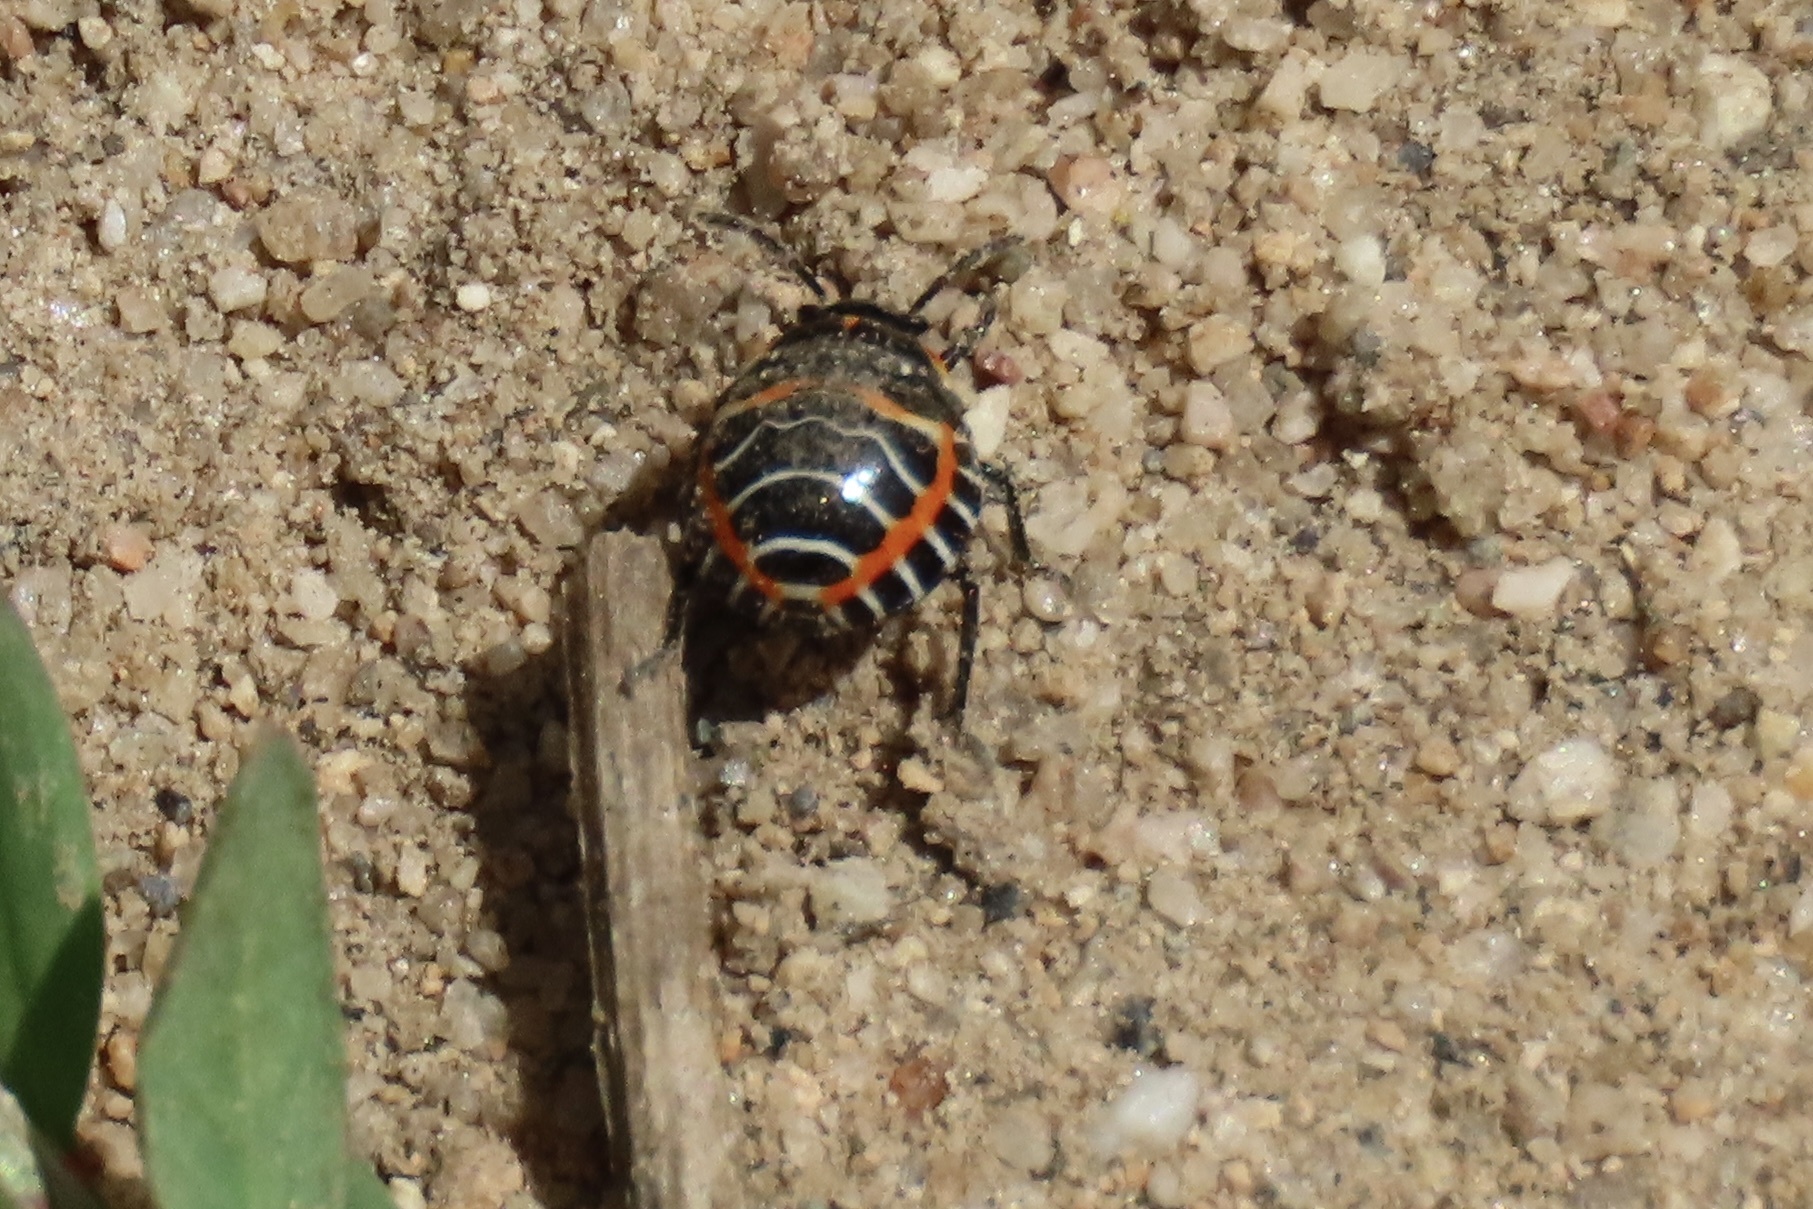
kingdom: Animalia
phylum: Arthropoda
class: Insecta
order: Hemiptera
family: Pentatomidae
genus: Murgantia
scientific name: Murgantia histrionica
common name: Harlequin bug
